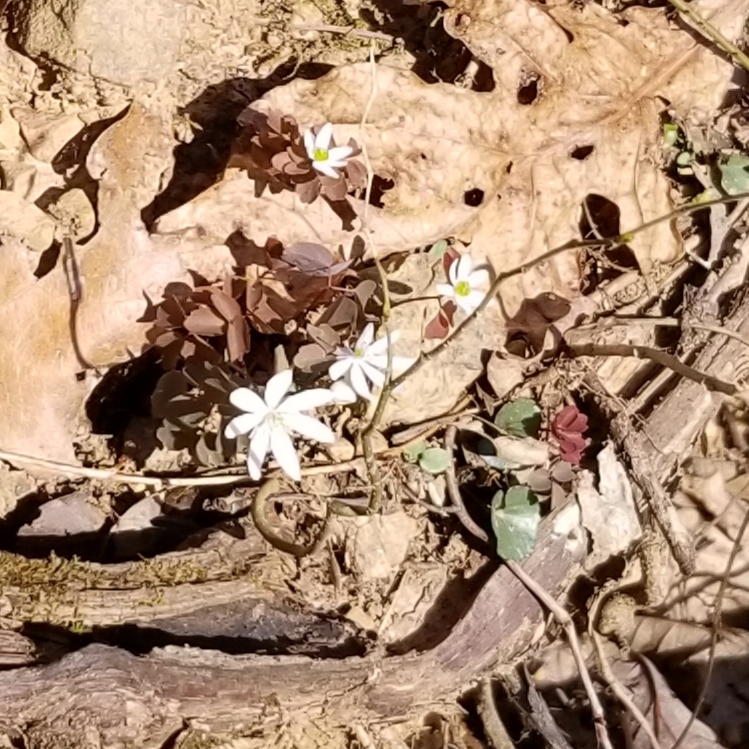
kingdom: Plantae
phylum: Tracheophyta
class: Magnoliopsida
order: Ranunculales
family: Ranunculaceae
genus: Thalictrum
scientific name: Thalictrum thalictroides
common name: Rue-anemone
